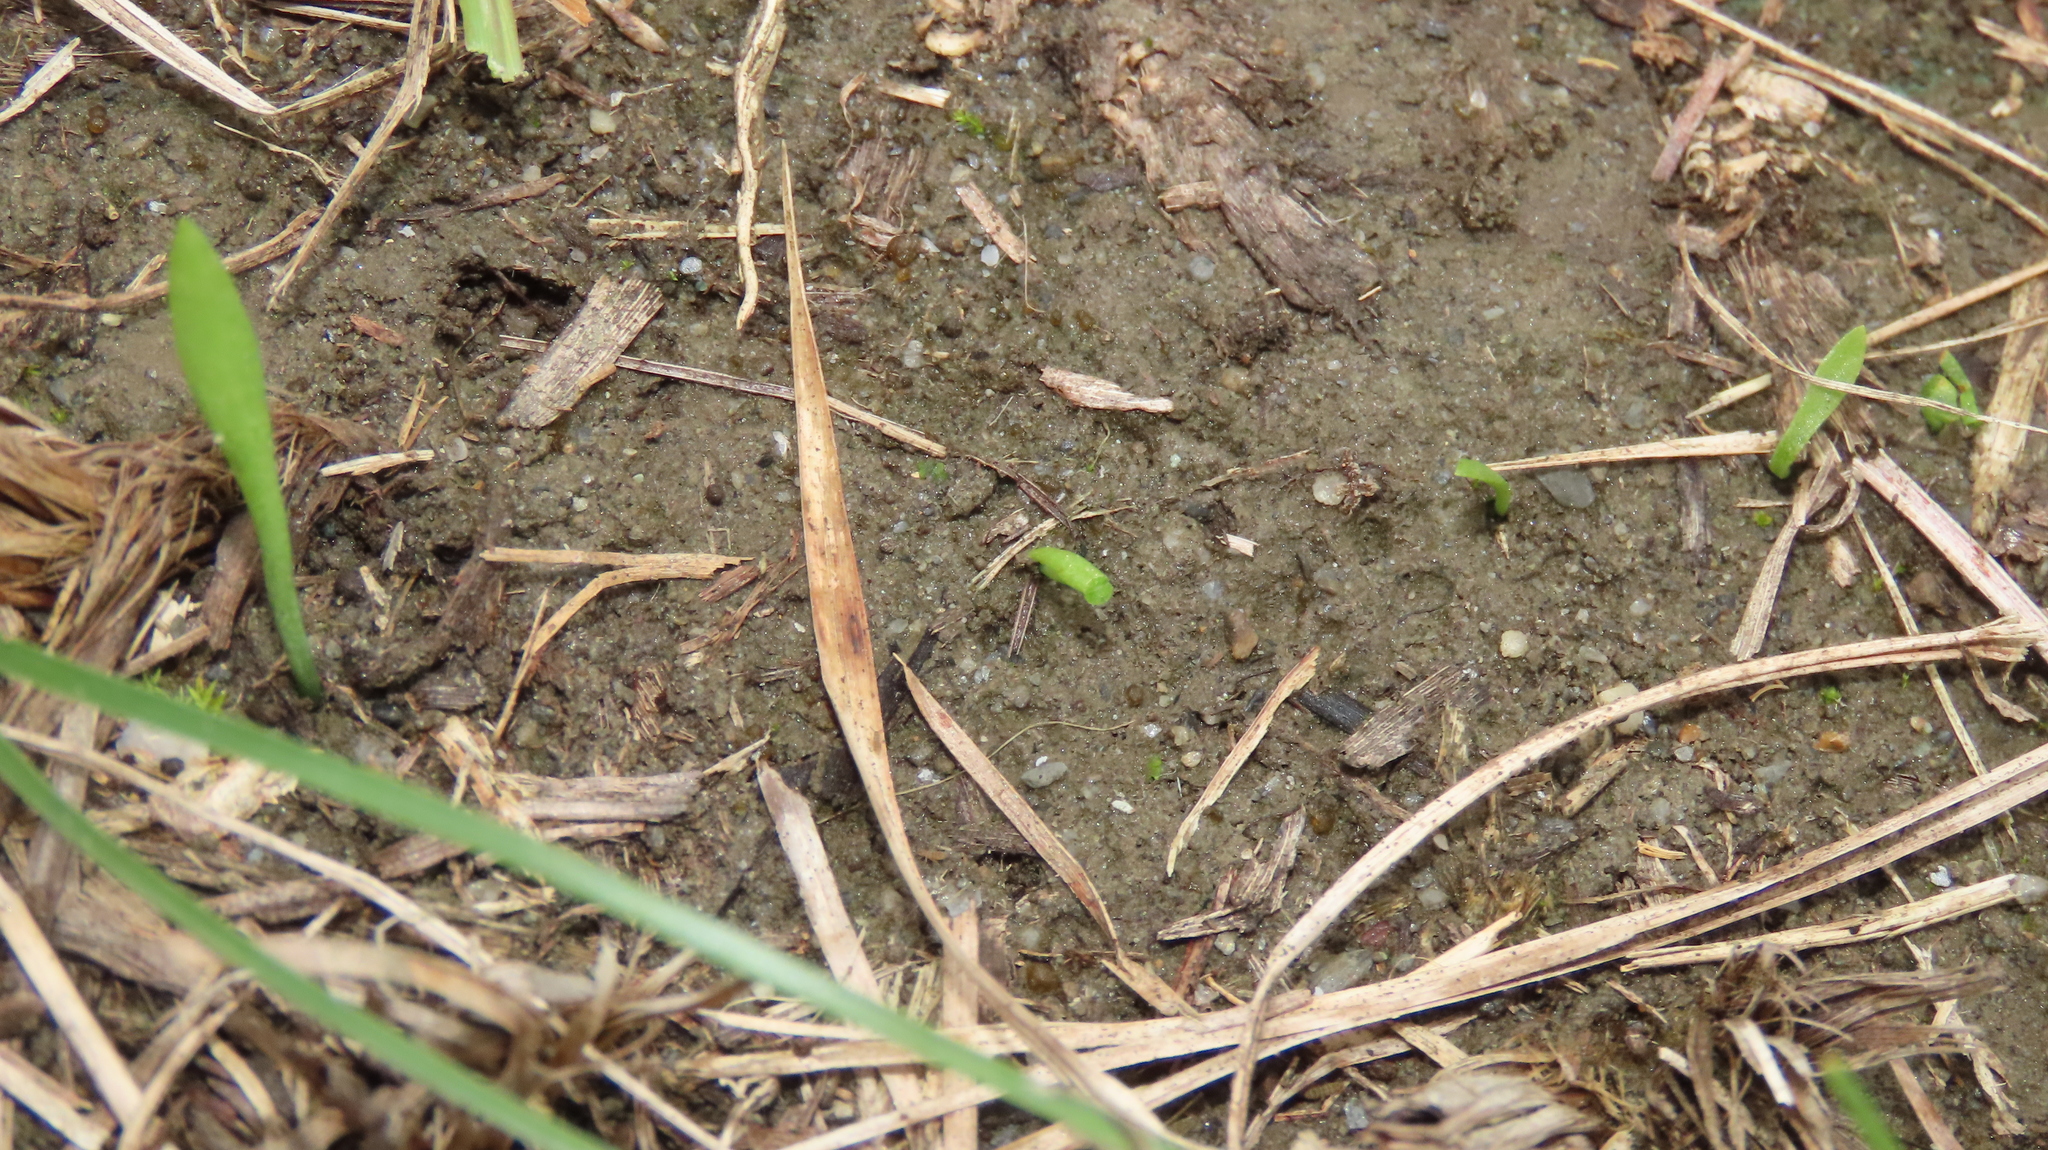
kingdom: Plantae
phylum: Tracheophyta
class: Polypodiopsida
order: Ophioglossales
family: Ophioglossaceae
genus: Ophioglossum
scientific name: Ophioglossum thermale
